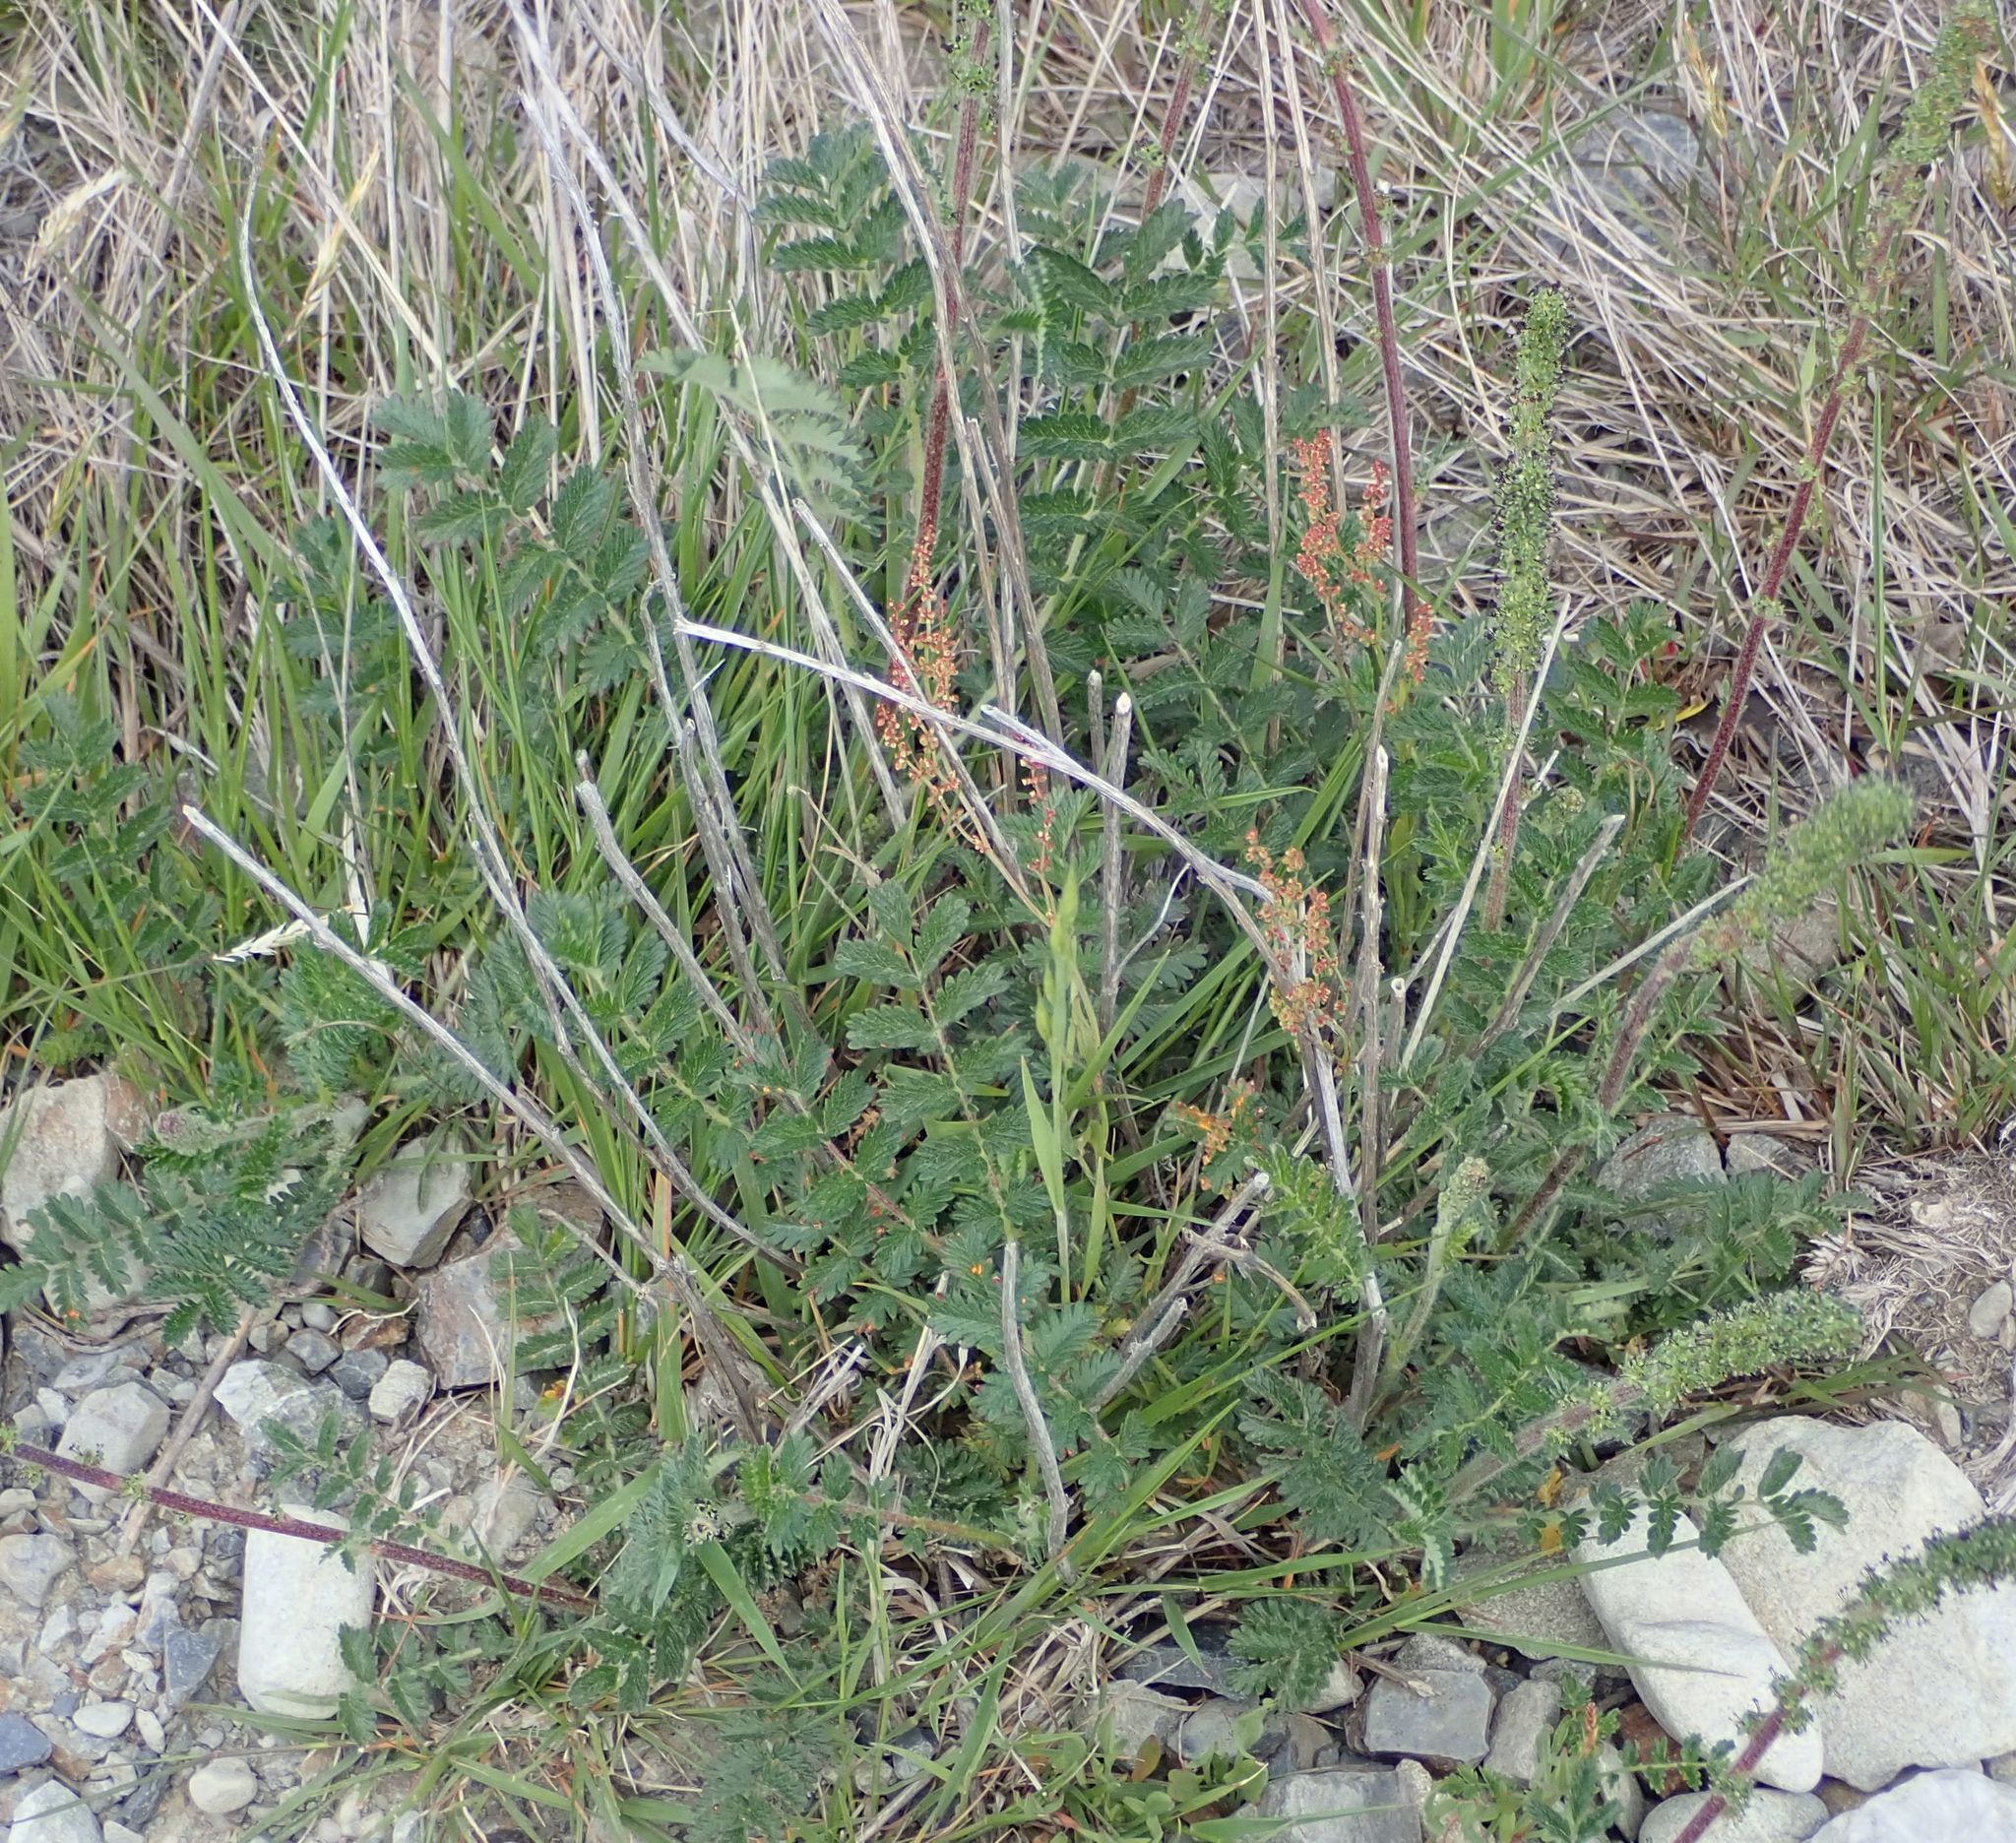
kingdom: Plantae
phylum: Tracheophyta
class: Magnoliopsida
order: Rosales
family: Rosaceae
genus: Acaena
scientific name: Acaena agnipila
